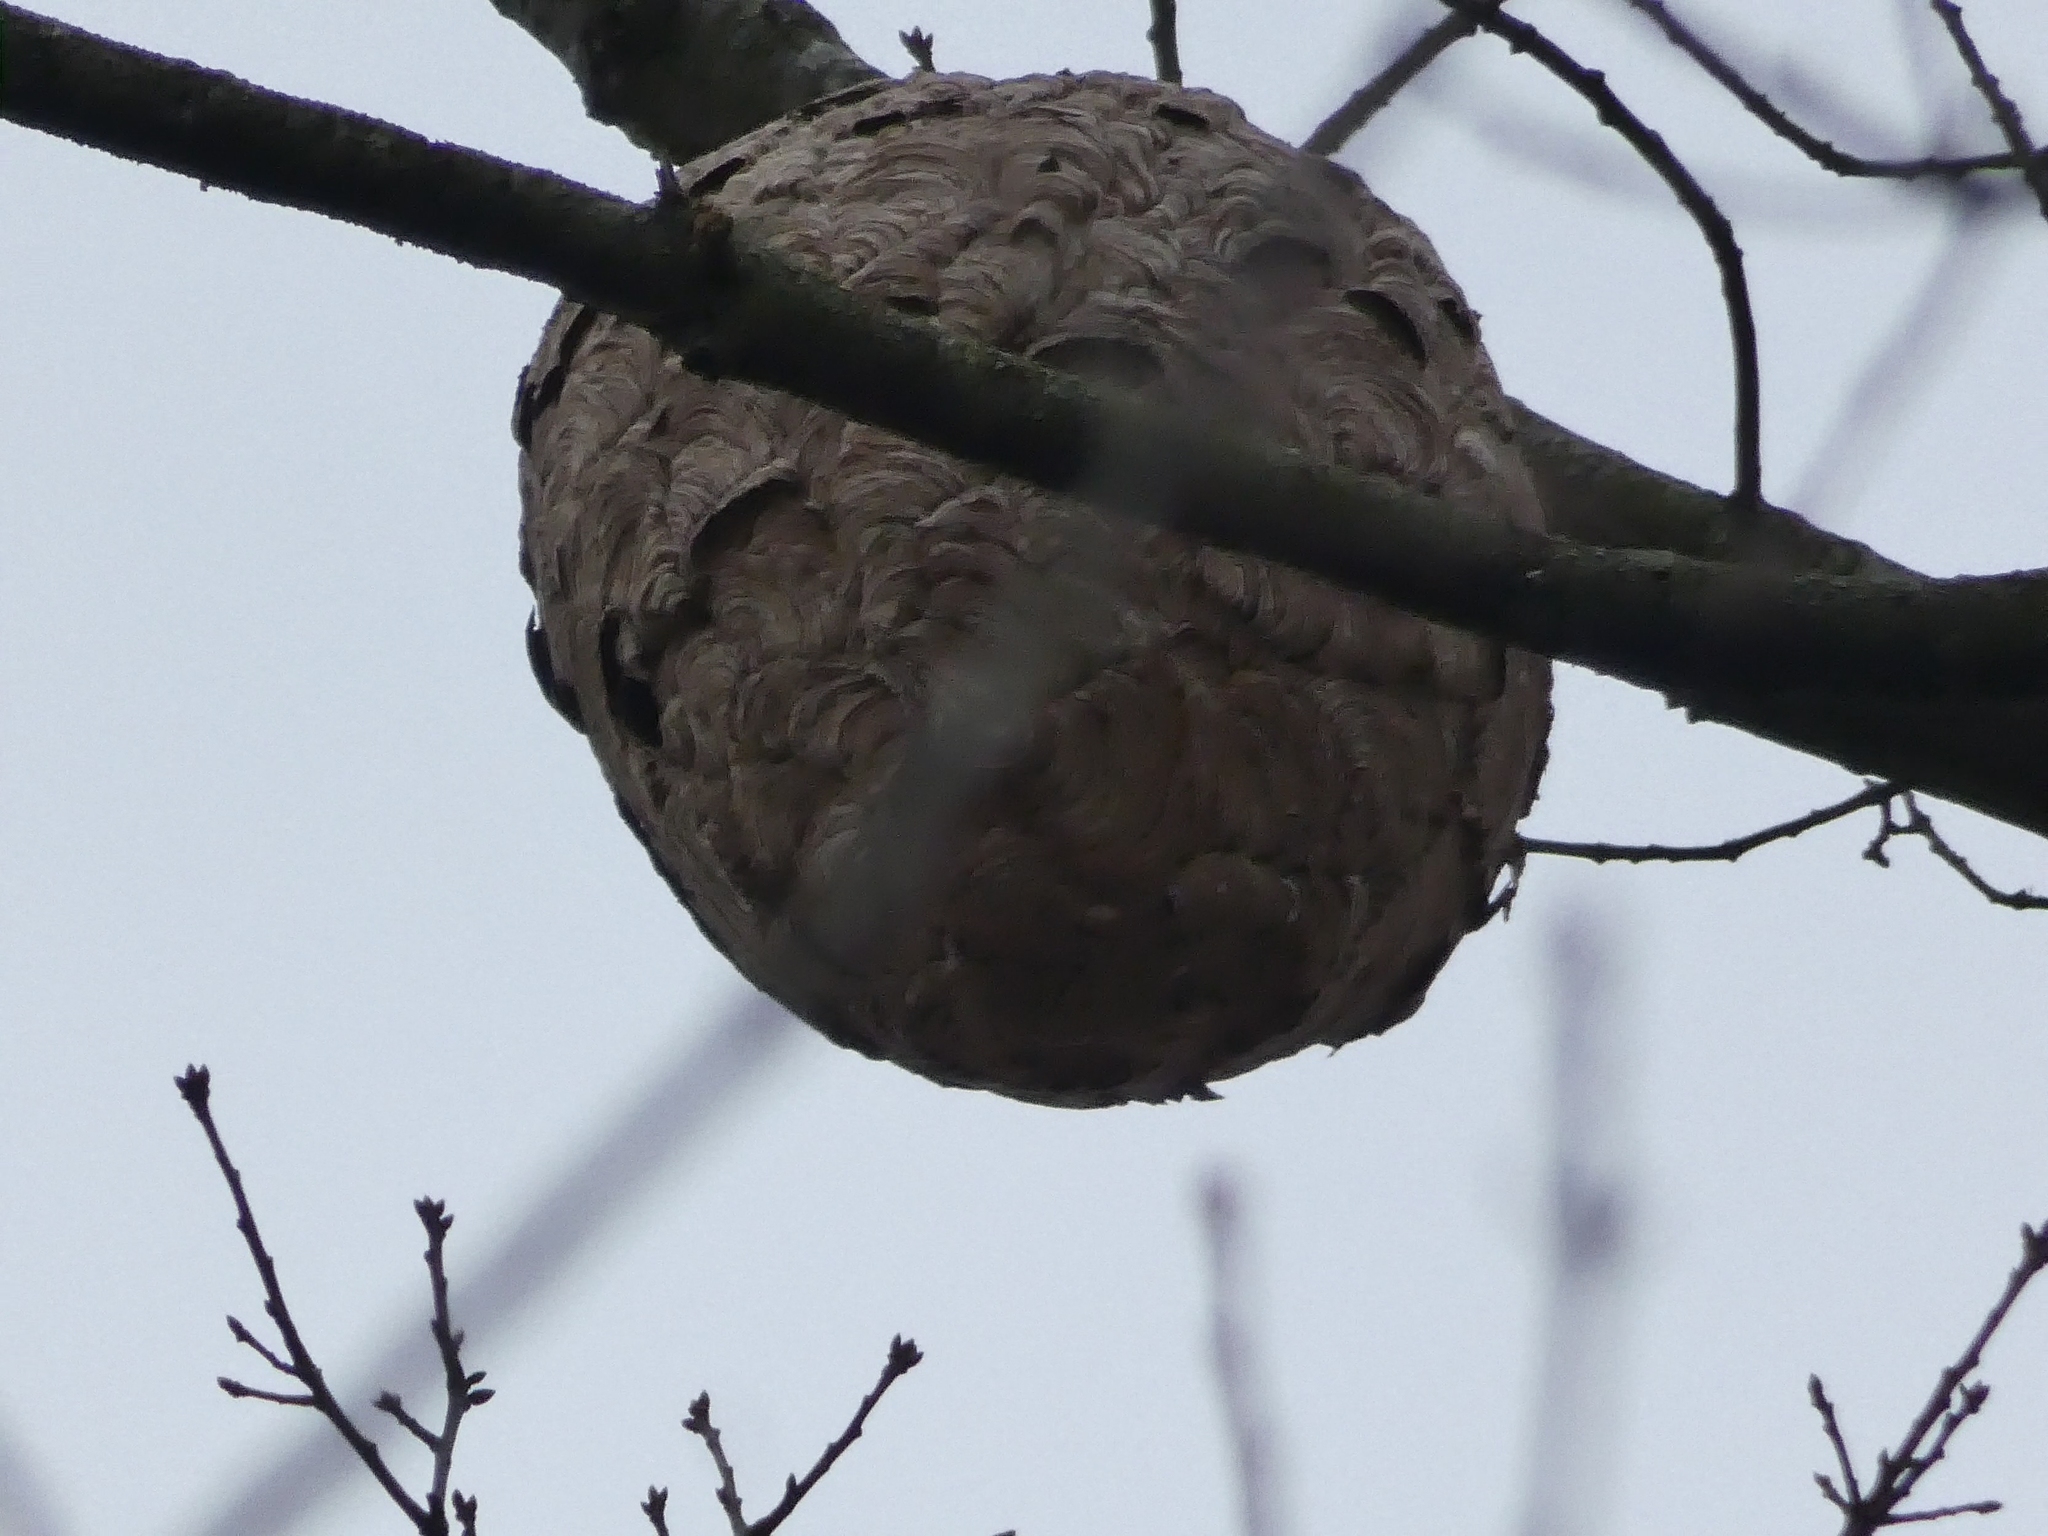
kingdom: Animalia
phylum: Arthropoda
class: Insecta
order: Hymenoptera
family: Vespidae
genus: Vespa
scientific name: Vespa velutina
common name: Asian hornet
